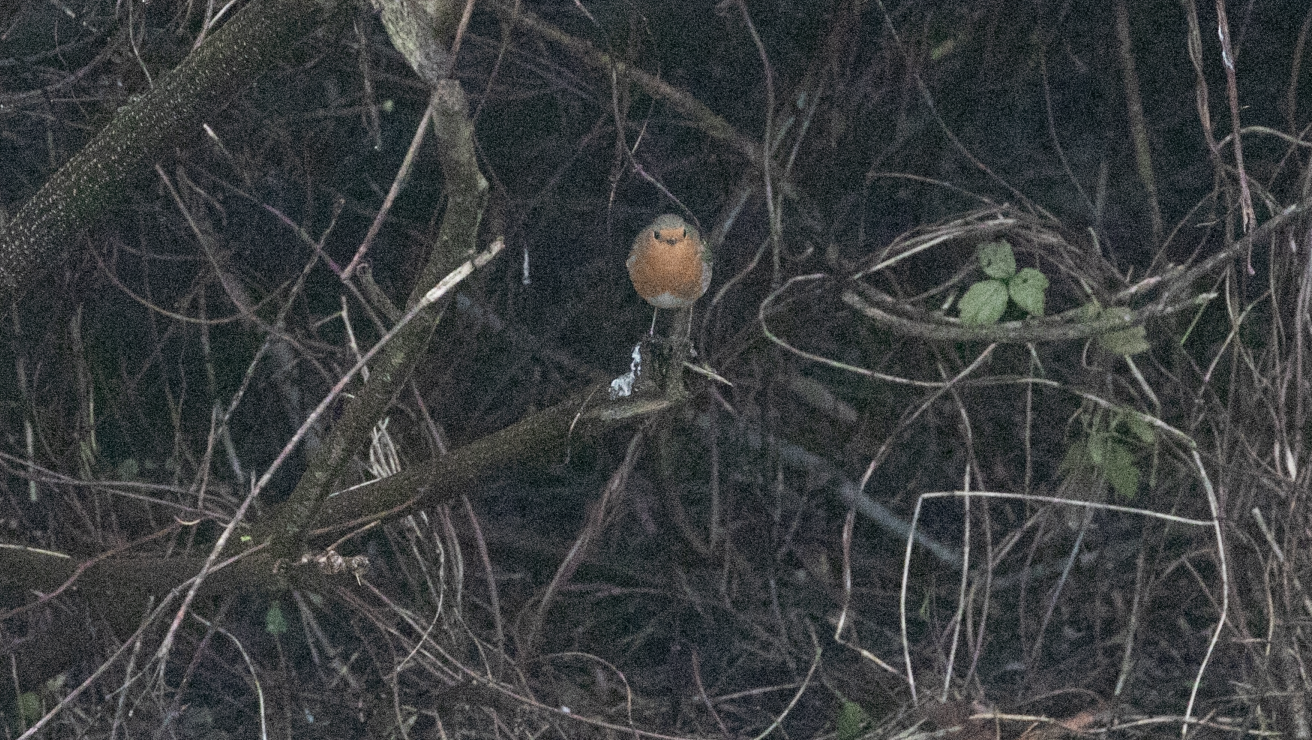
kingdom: Animalia
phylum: Chordata
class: Aves
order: Passeriformes
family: Muscicapidae
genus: Erithacus
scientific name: Erithacus rubecula
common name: European robin
